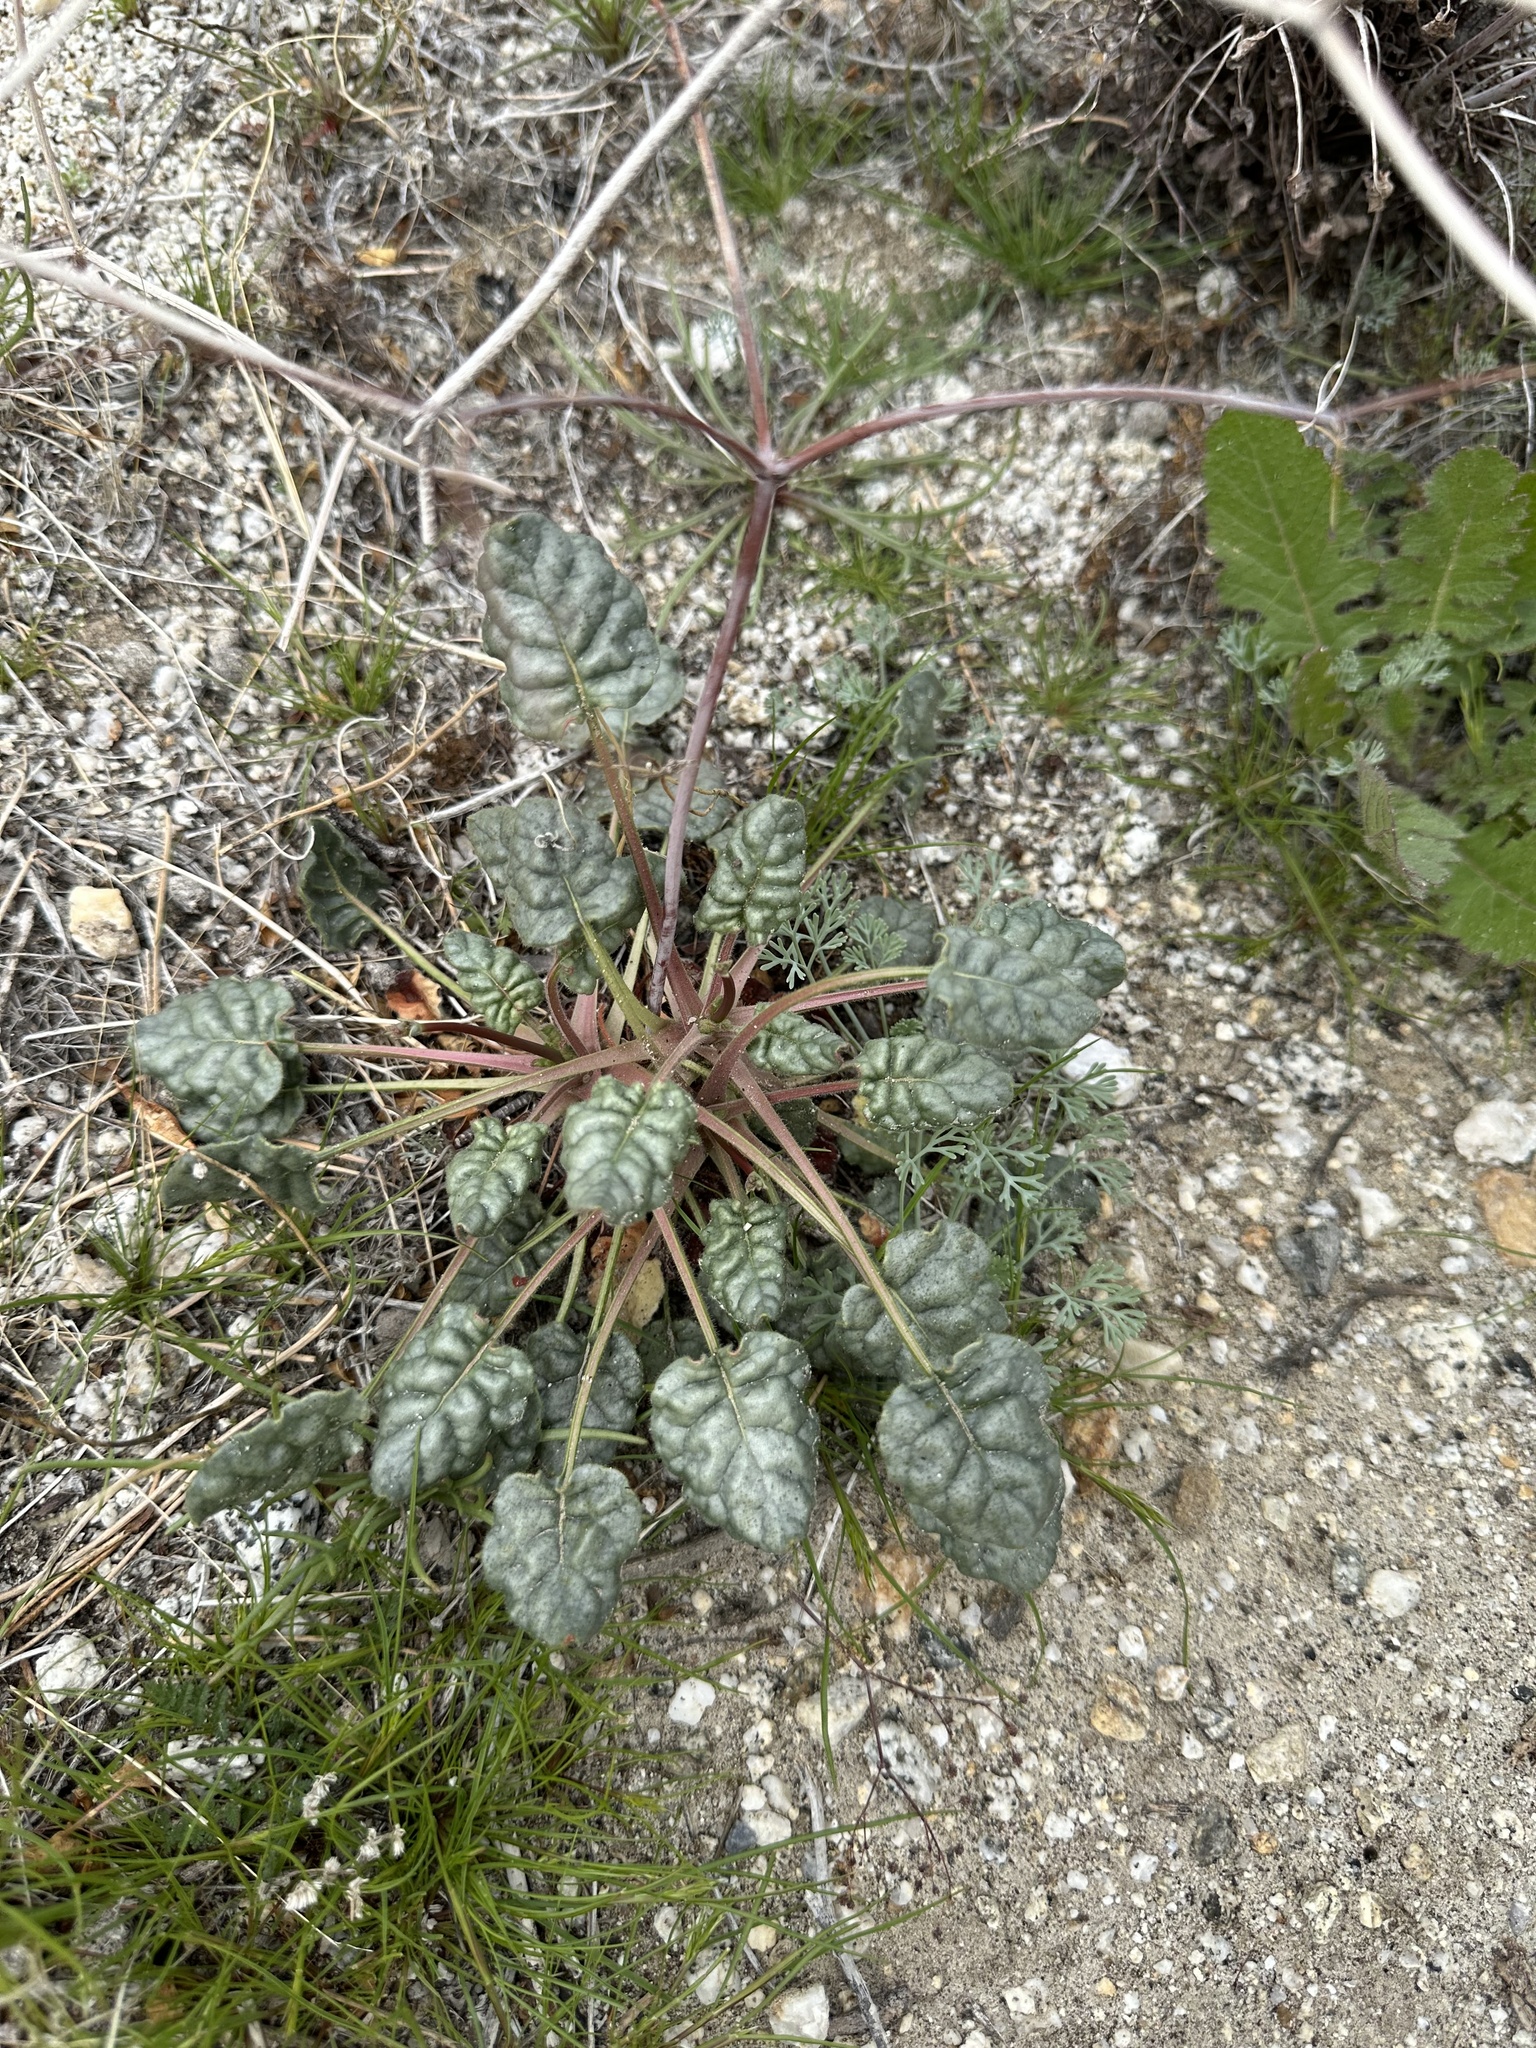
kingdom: Plantae
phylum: Tracheophyta
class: Magnoliopsida
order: Caryophyllales
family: Polygonaceae
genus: Eriogonum
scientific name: Eriogonum inflatum
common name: Desert trumpet
